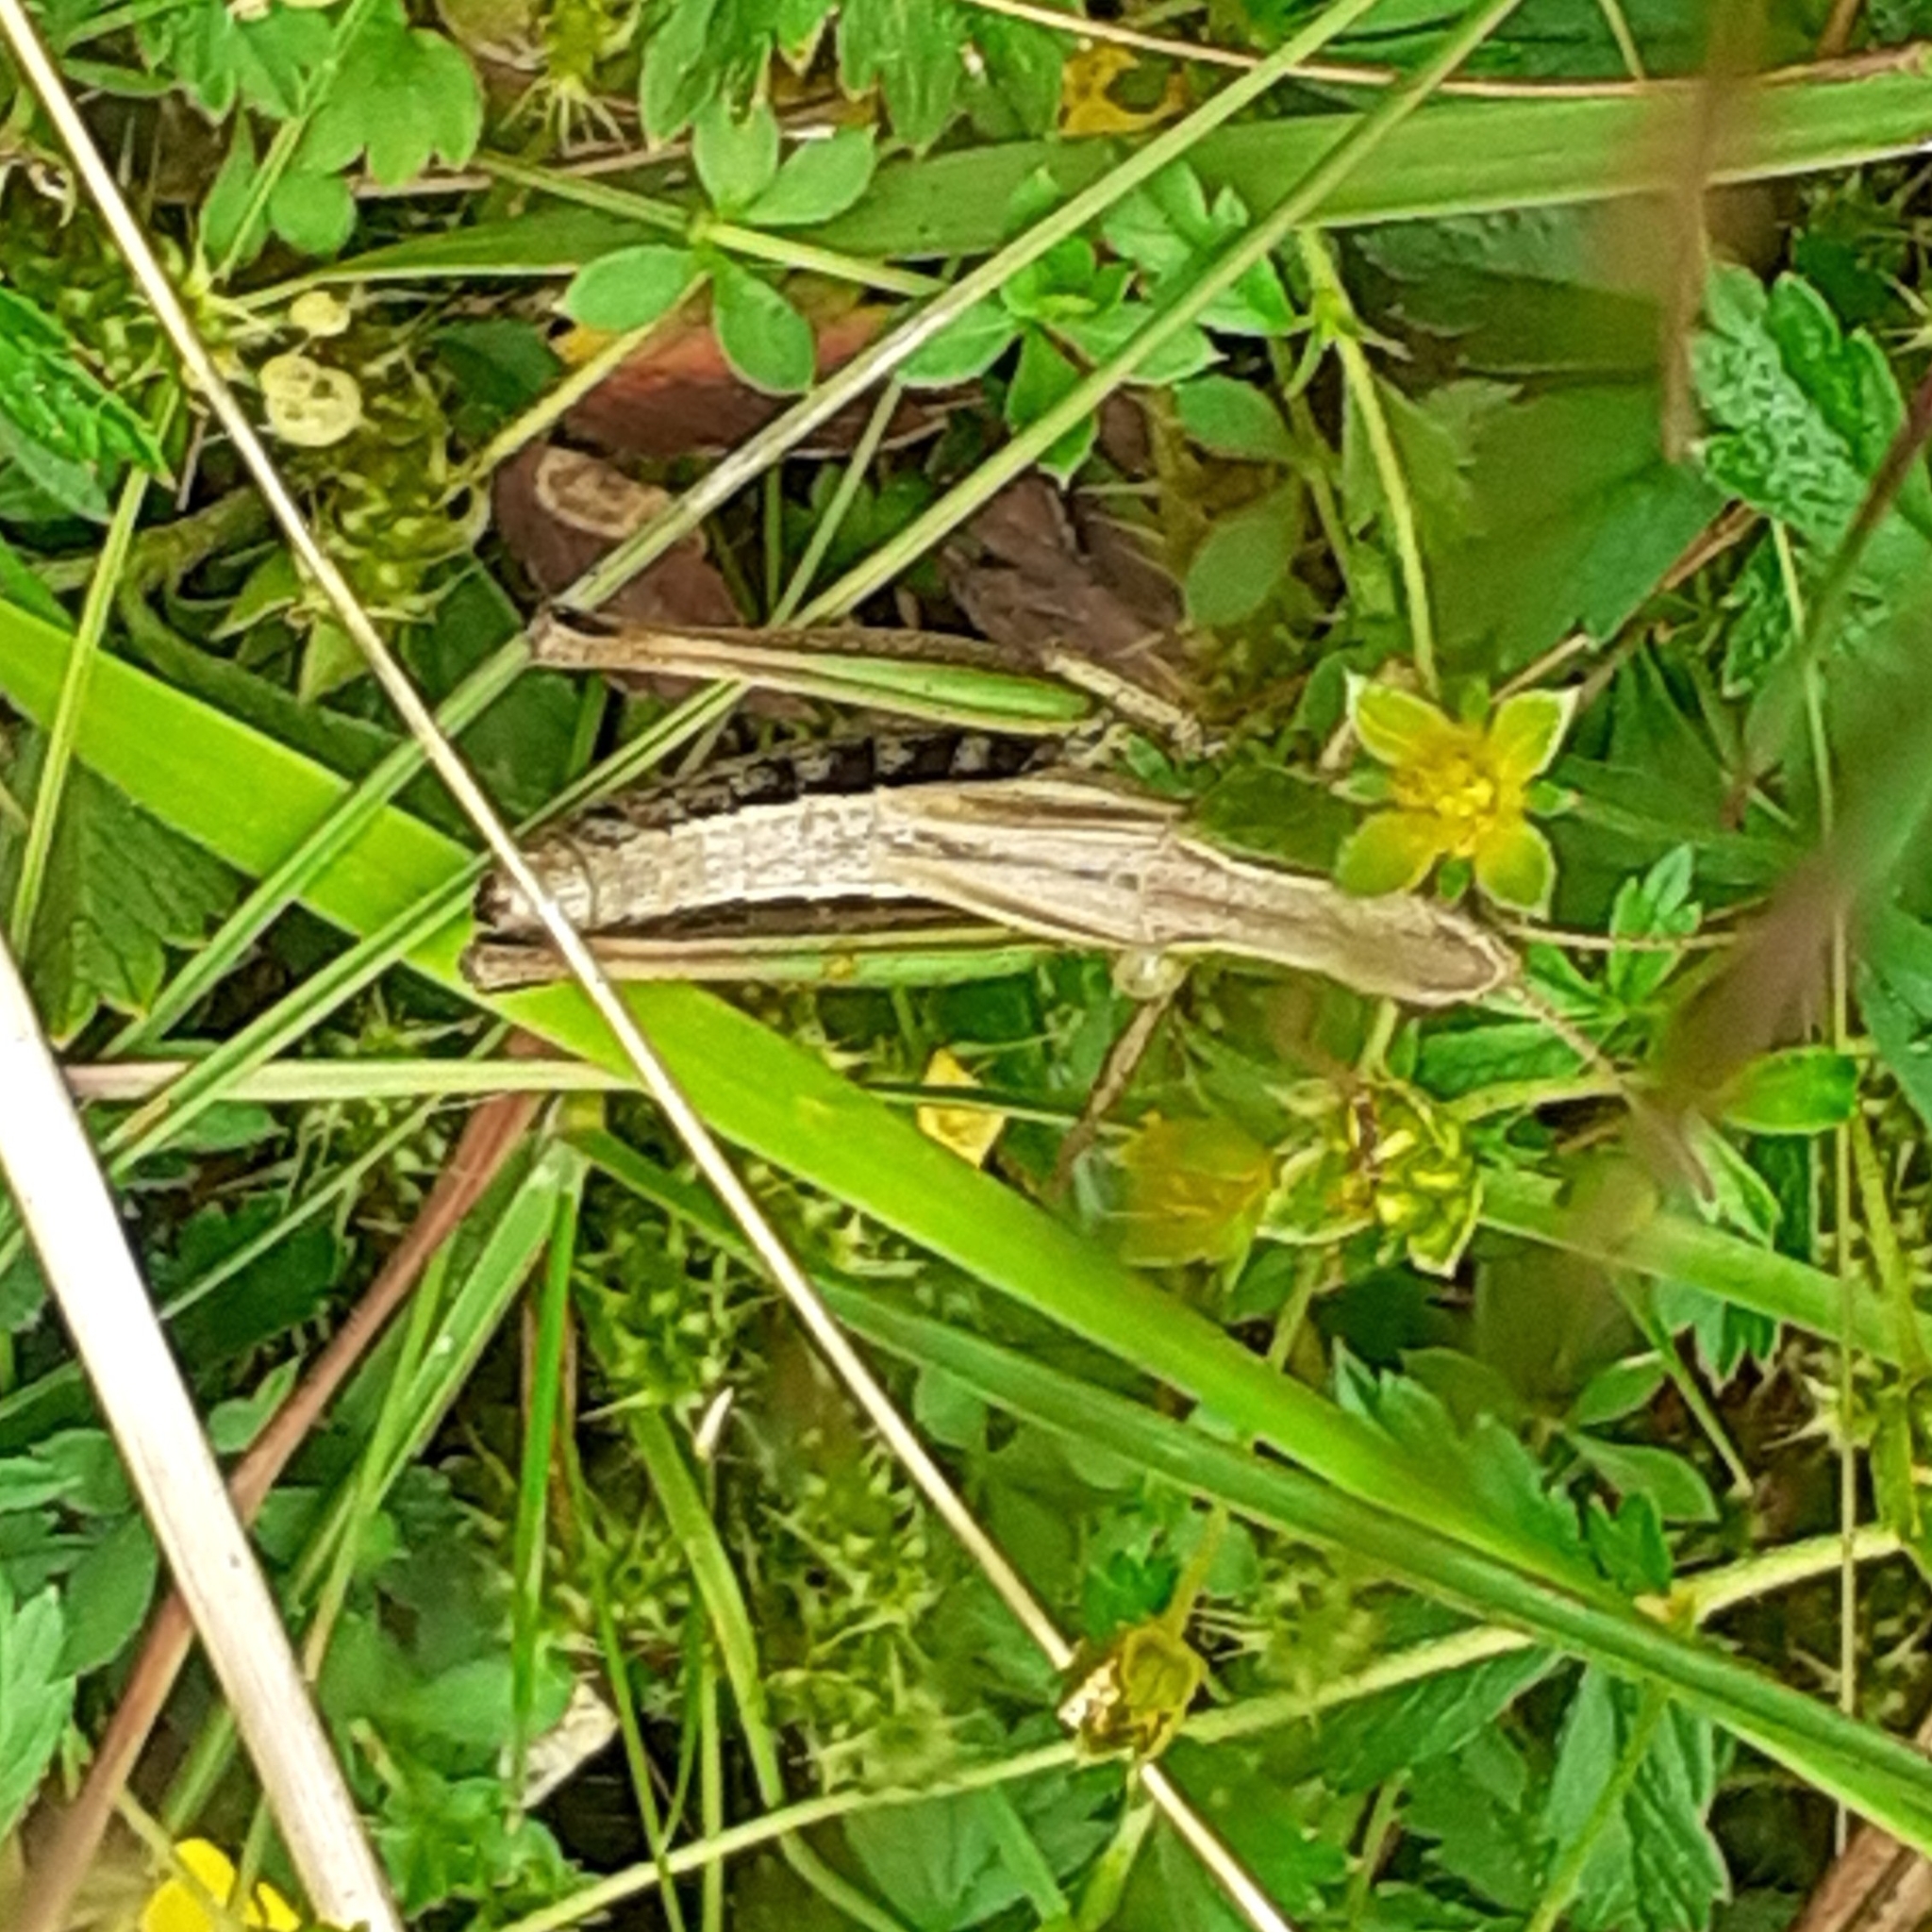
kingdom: Animalia
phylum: Arthropoda
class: Insecta
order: Orthoptera
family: Acrididae
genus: Pseudochorthippus
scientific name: Pseudochorthippus parallelus
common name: Meadow grasshopper
